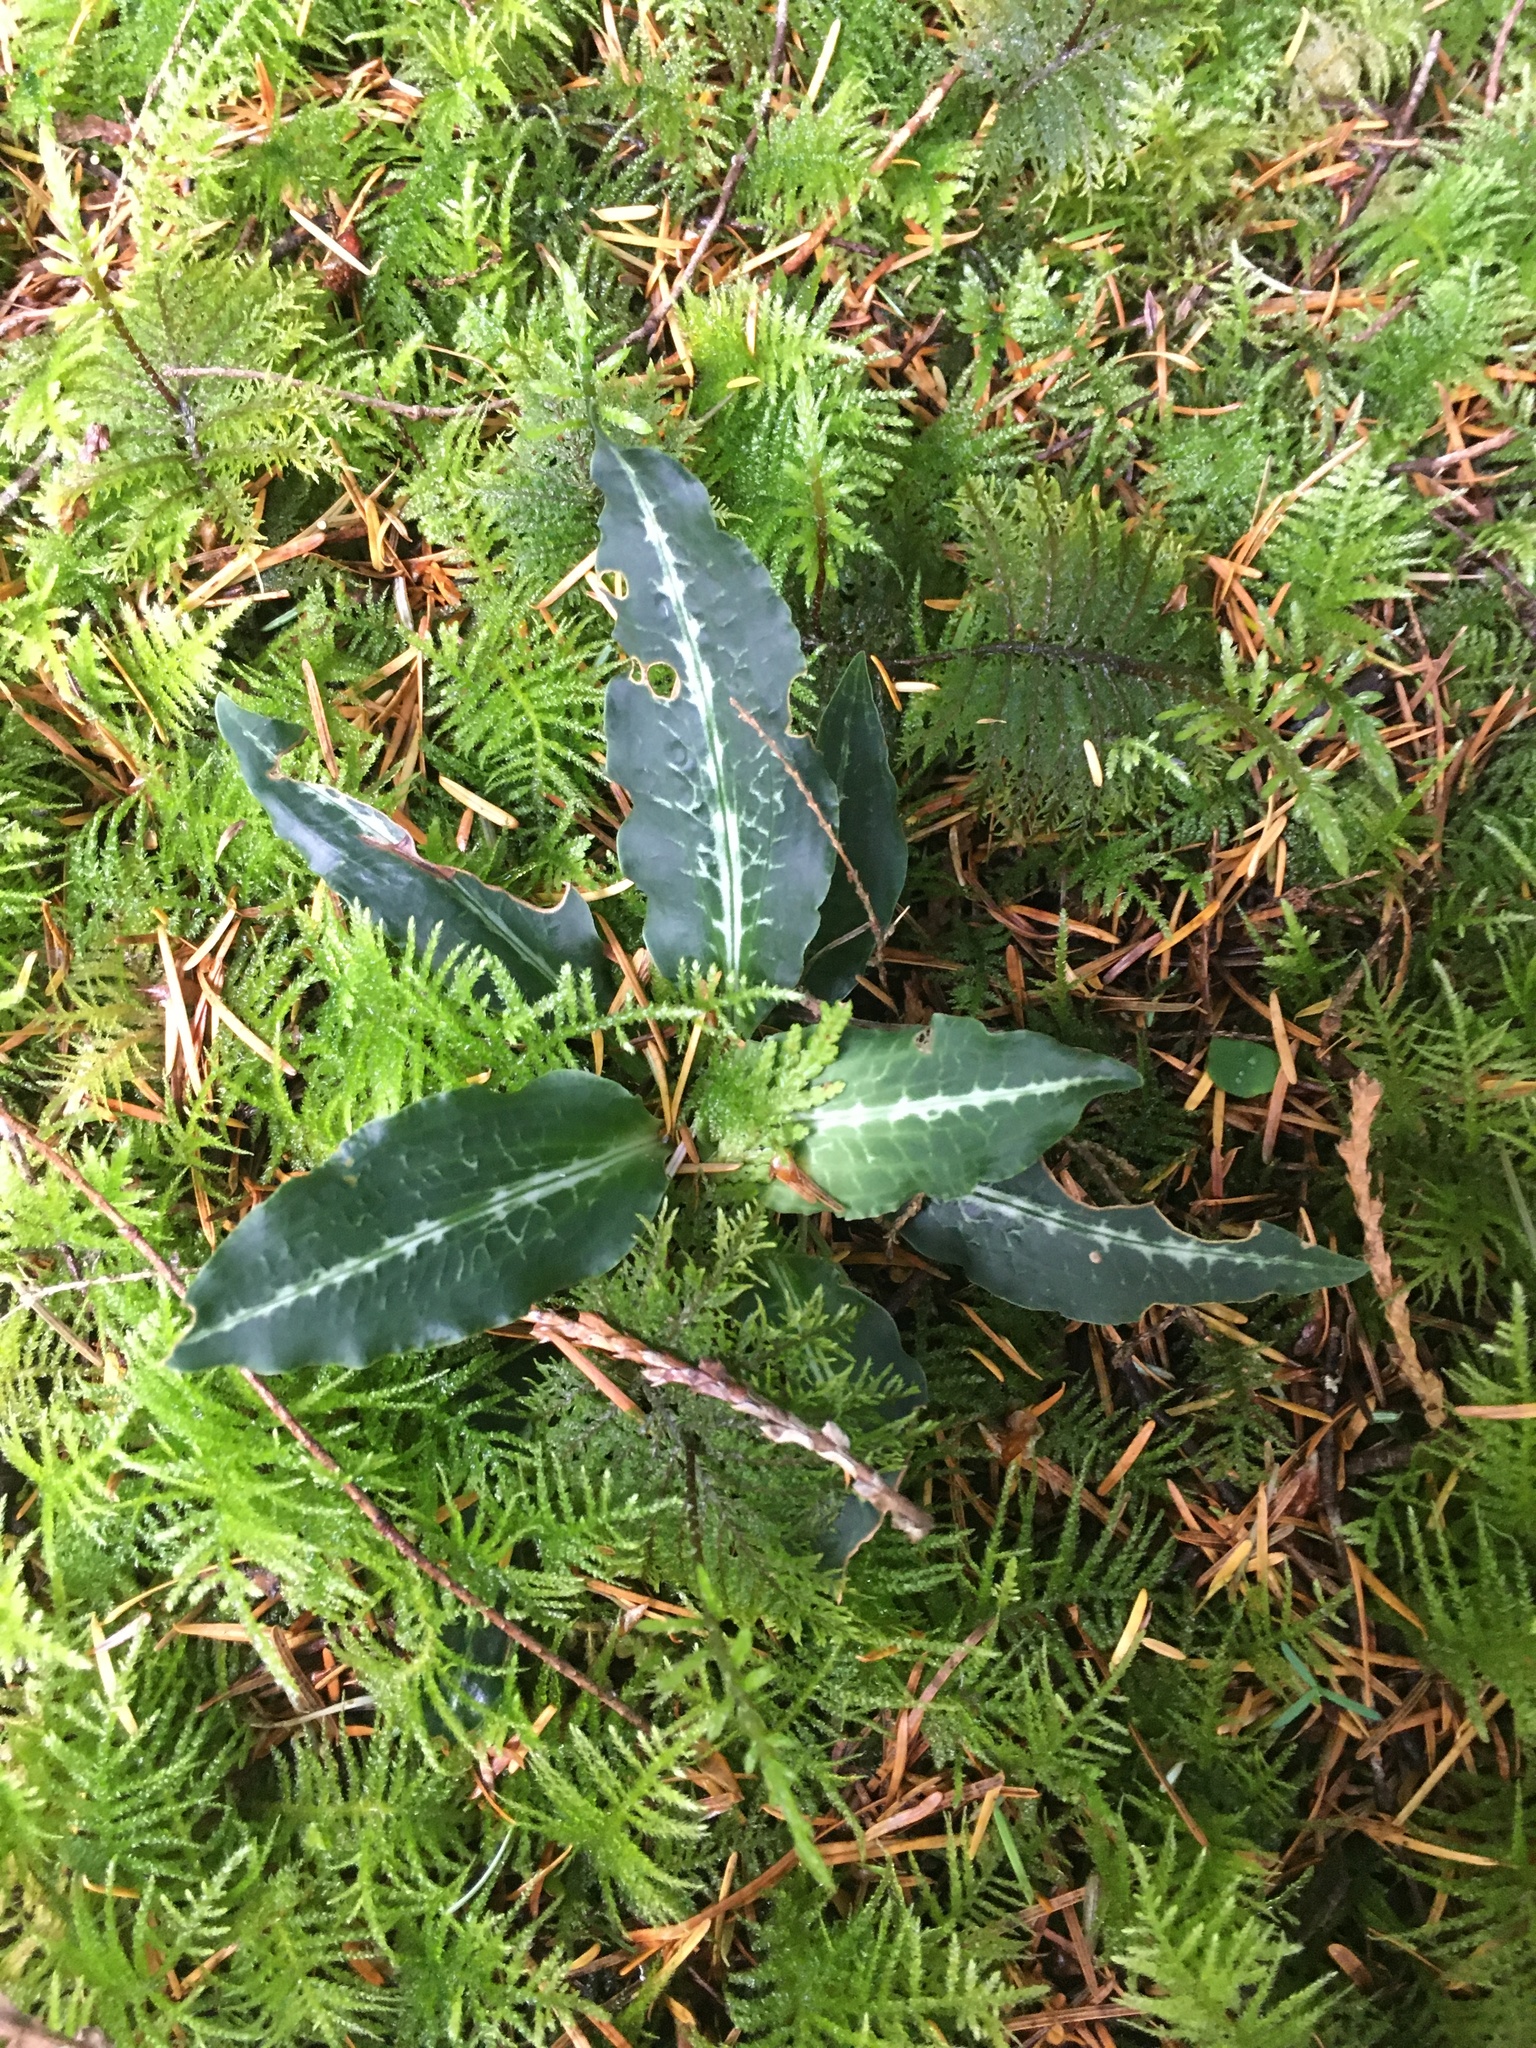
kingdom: Plantae
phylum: Tracheophyta
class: Liliopsida
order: Asparagales
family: Orchidaceae
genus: Goodyera
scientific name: Goodyera oblongifolia
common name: Giant rattlesnake-plantain
